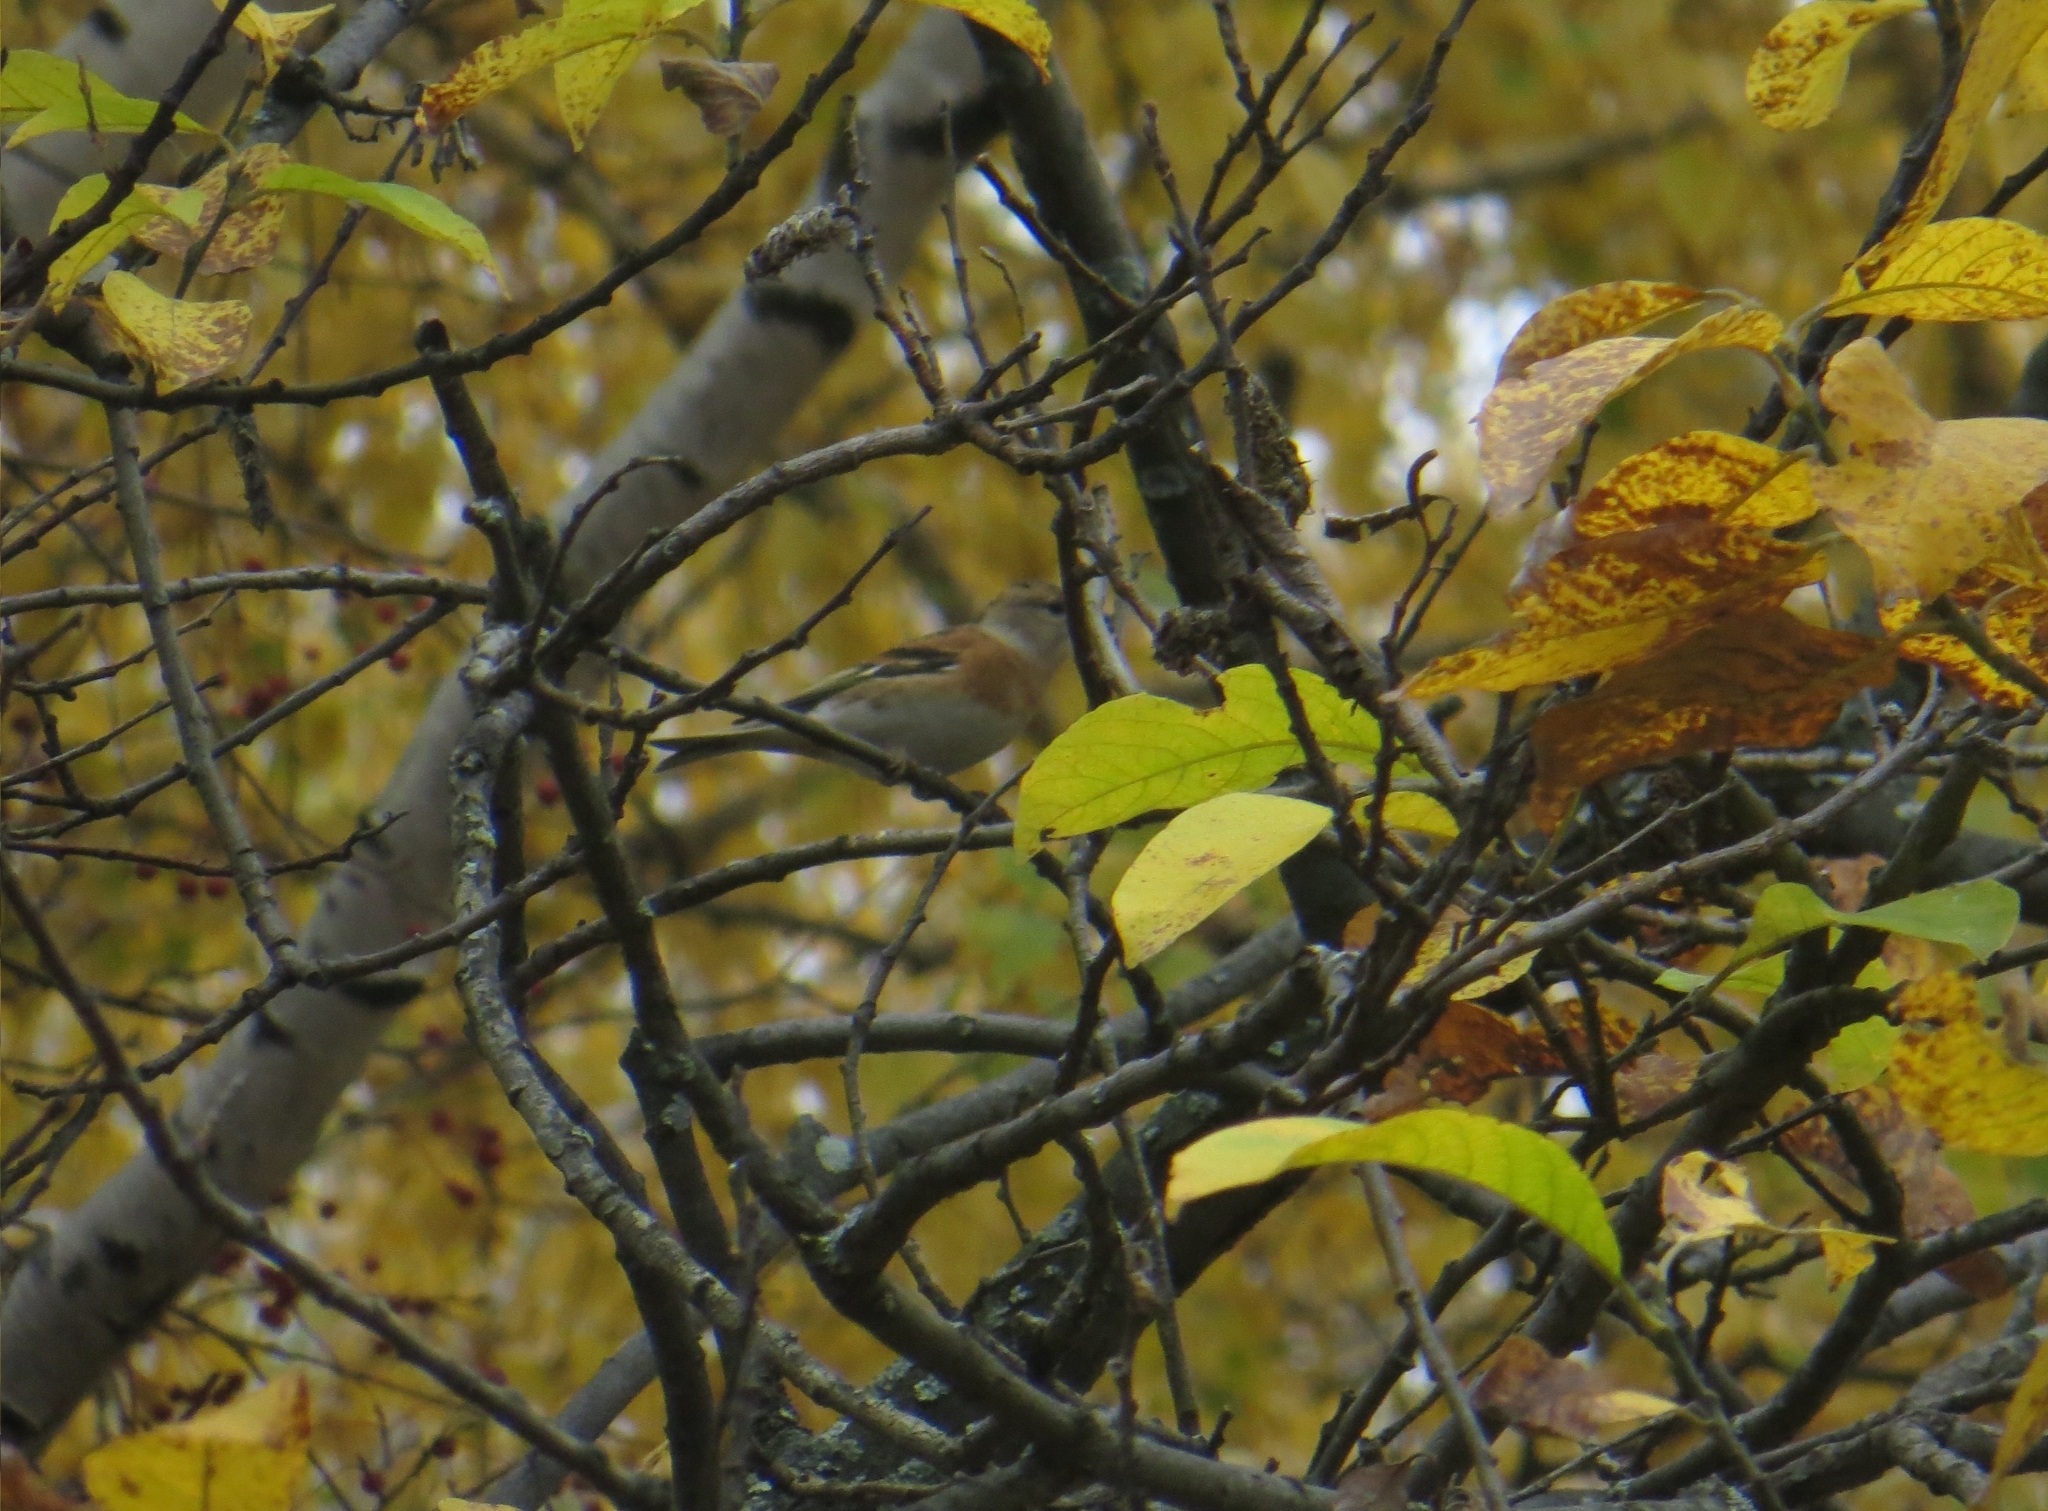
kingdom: Animalia
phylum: Chordata
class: Aves
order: Passeriformes
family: Fringillidae
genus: Fringilla
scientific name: Fringilla montifringilla
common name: Brambling
